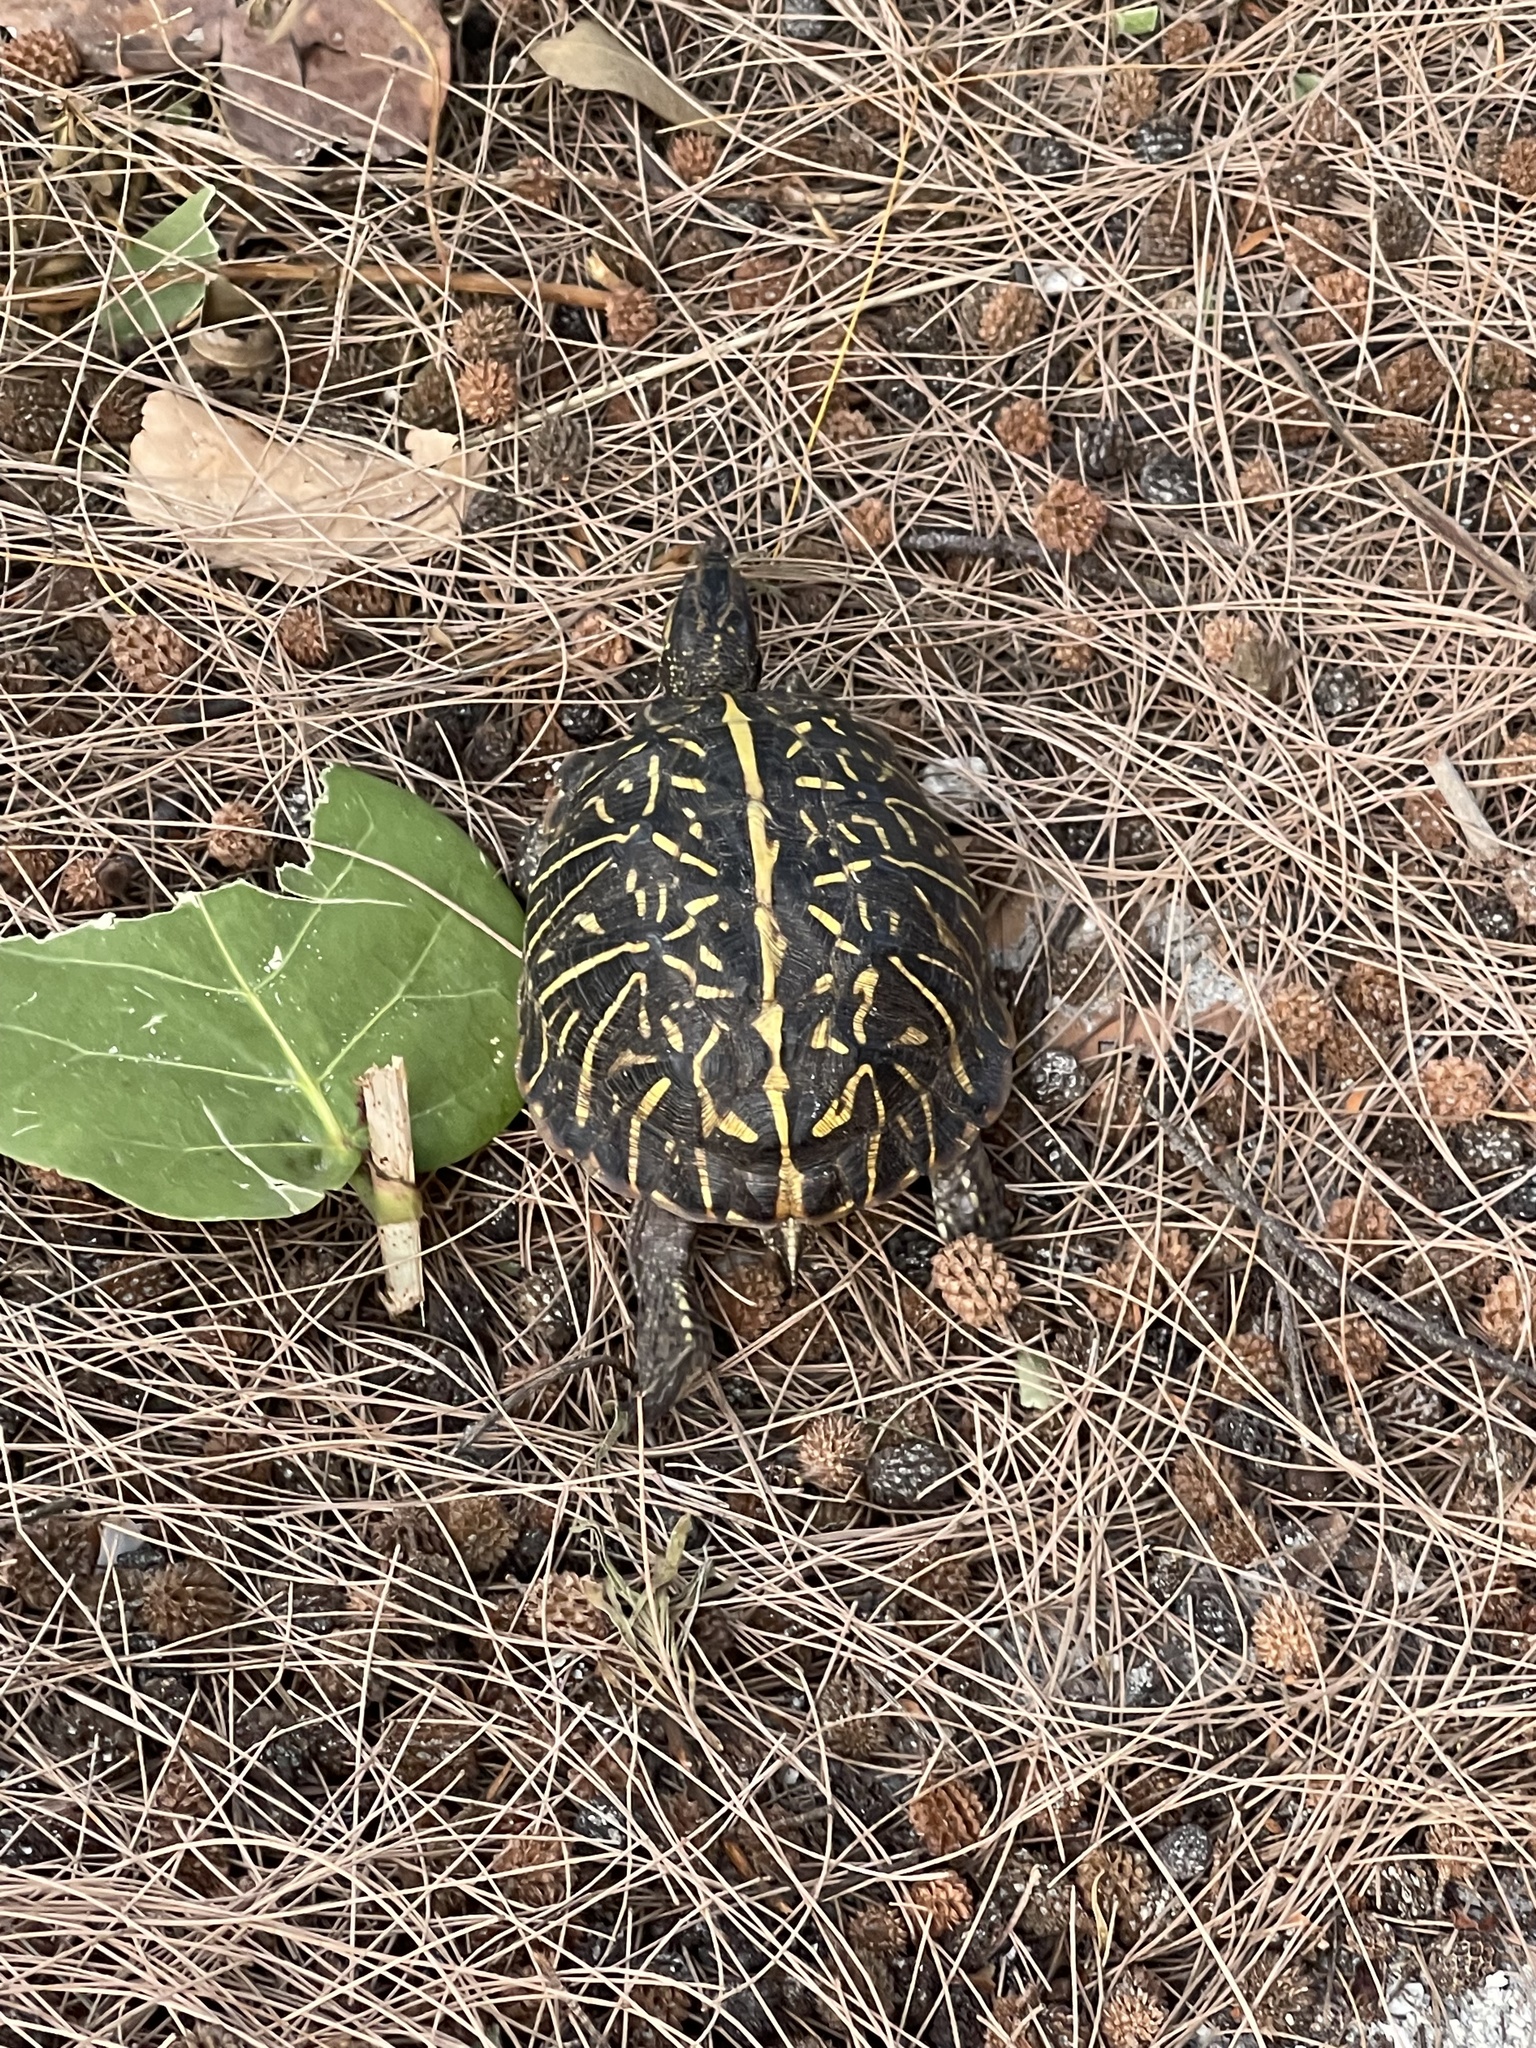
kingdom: Animalia
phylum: Chordata
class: Testudines
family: Emydidae
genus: Terrapene
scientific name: Terrapene carolina
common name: Common box turtle
